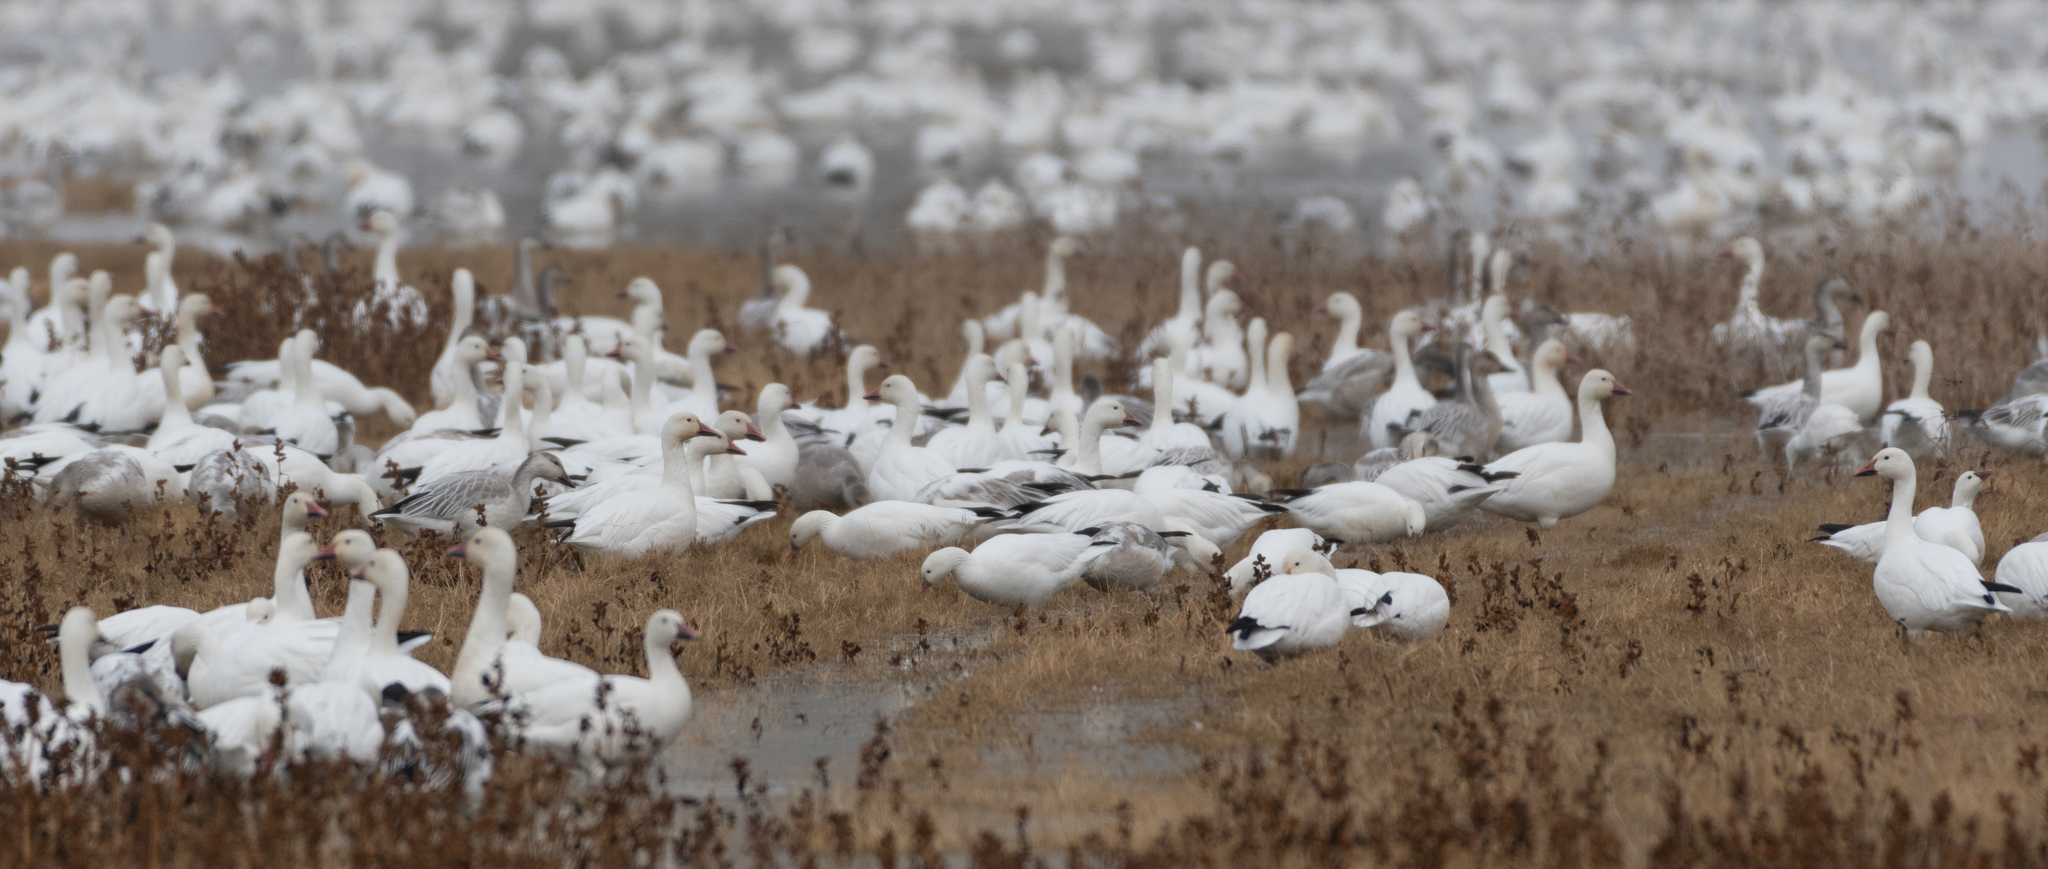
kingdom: Animalia
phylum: Chordata
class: Aves
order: Anseriformes
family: Anatidae
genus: Anser
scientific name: Anser caerulescens
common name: Snow goose
